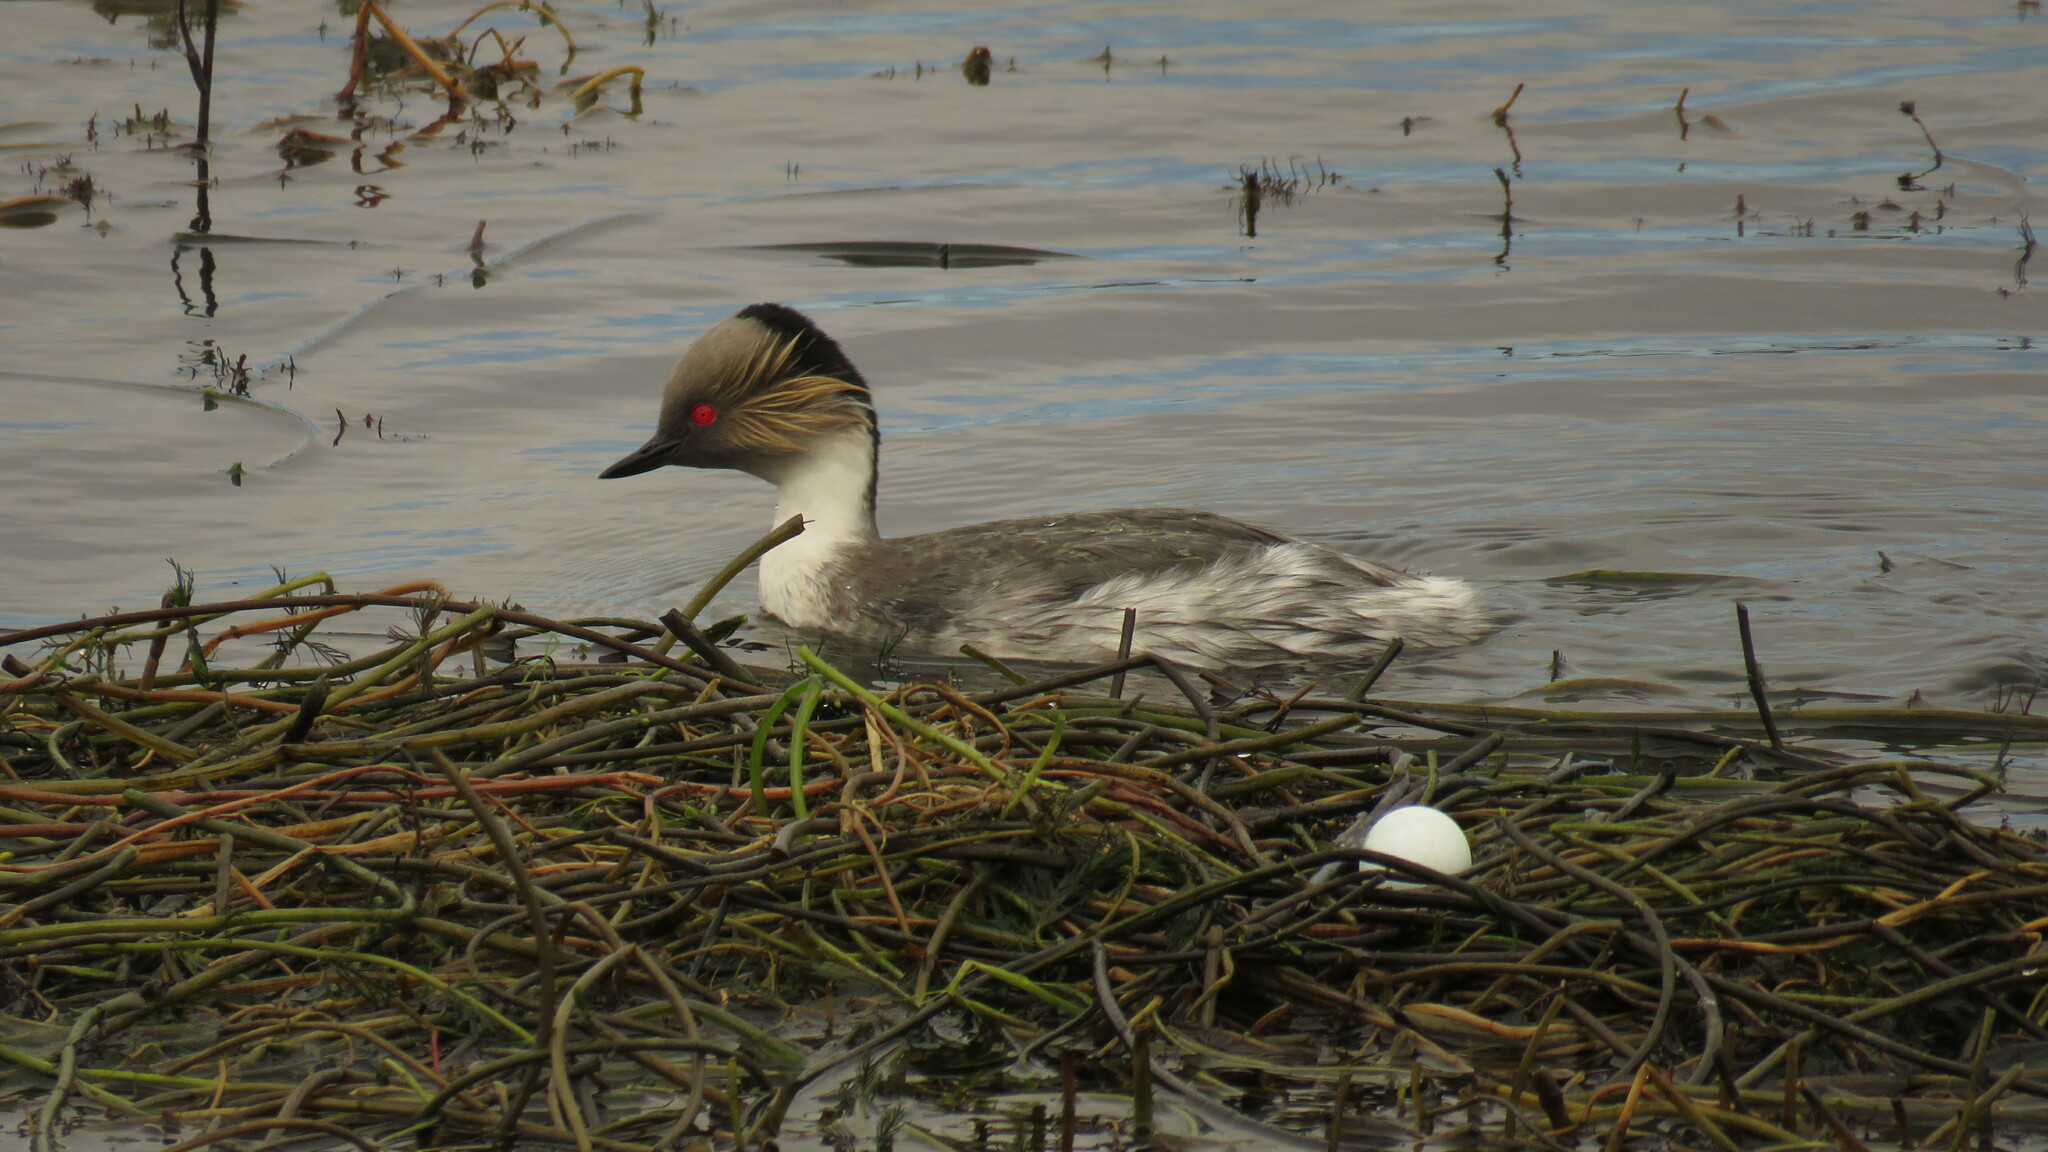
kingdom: Animalia
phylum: Chordata
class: Aves
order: Podicipediformes
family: Podicipedidae
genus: Podiceps
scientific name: Podiceps occipitalis
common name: Silvery grebe
